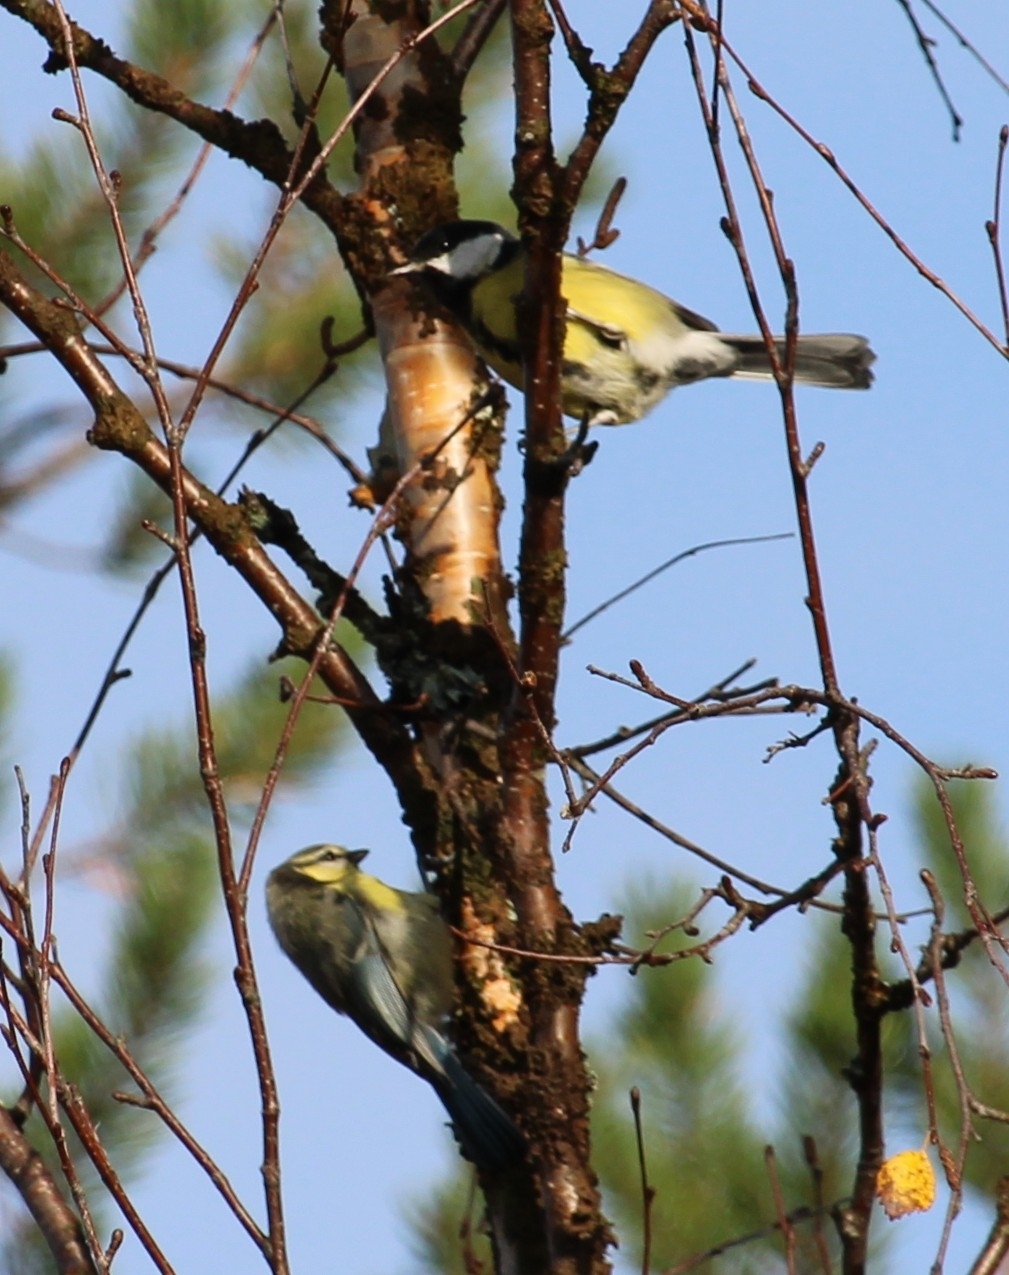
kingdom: Animalia
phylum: Chordata
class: Aves
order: Passeriformes
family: Paridae
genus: Parus
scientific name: Parus major
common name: Great tit
